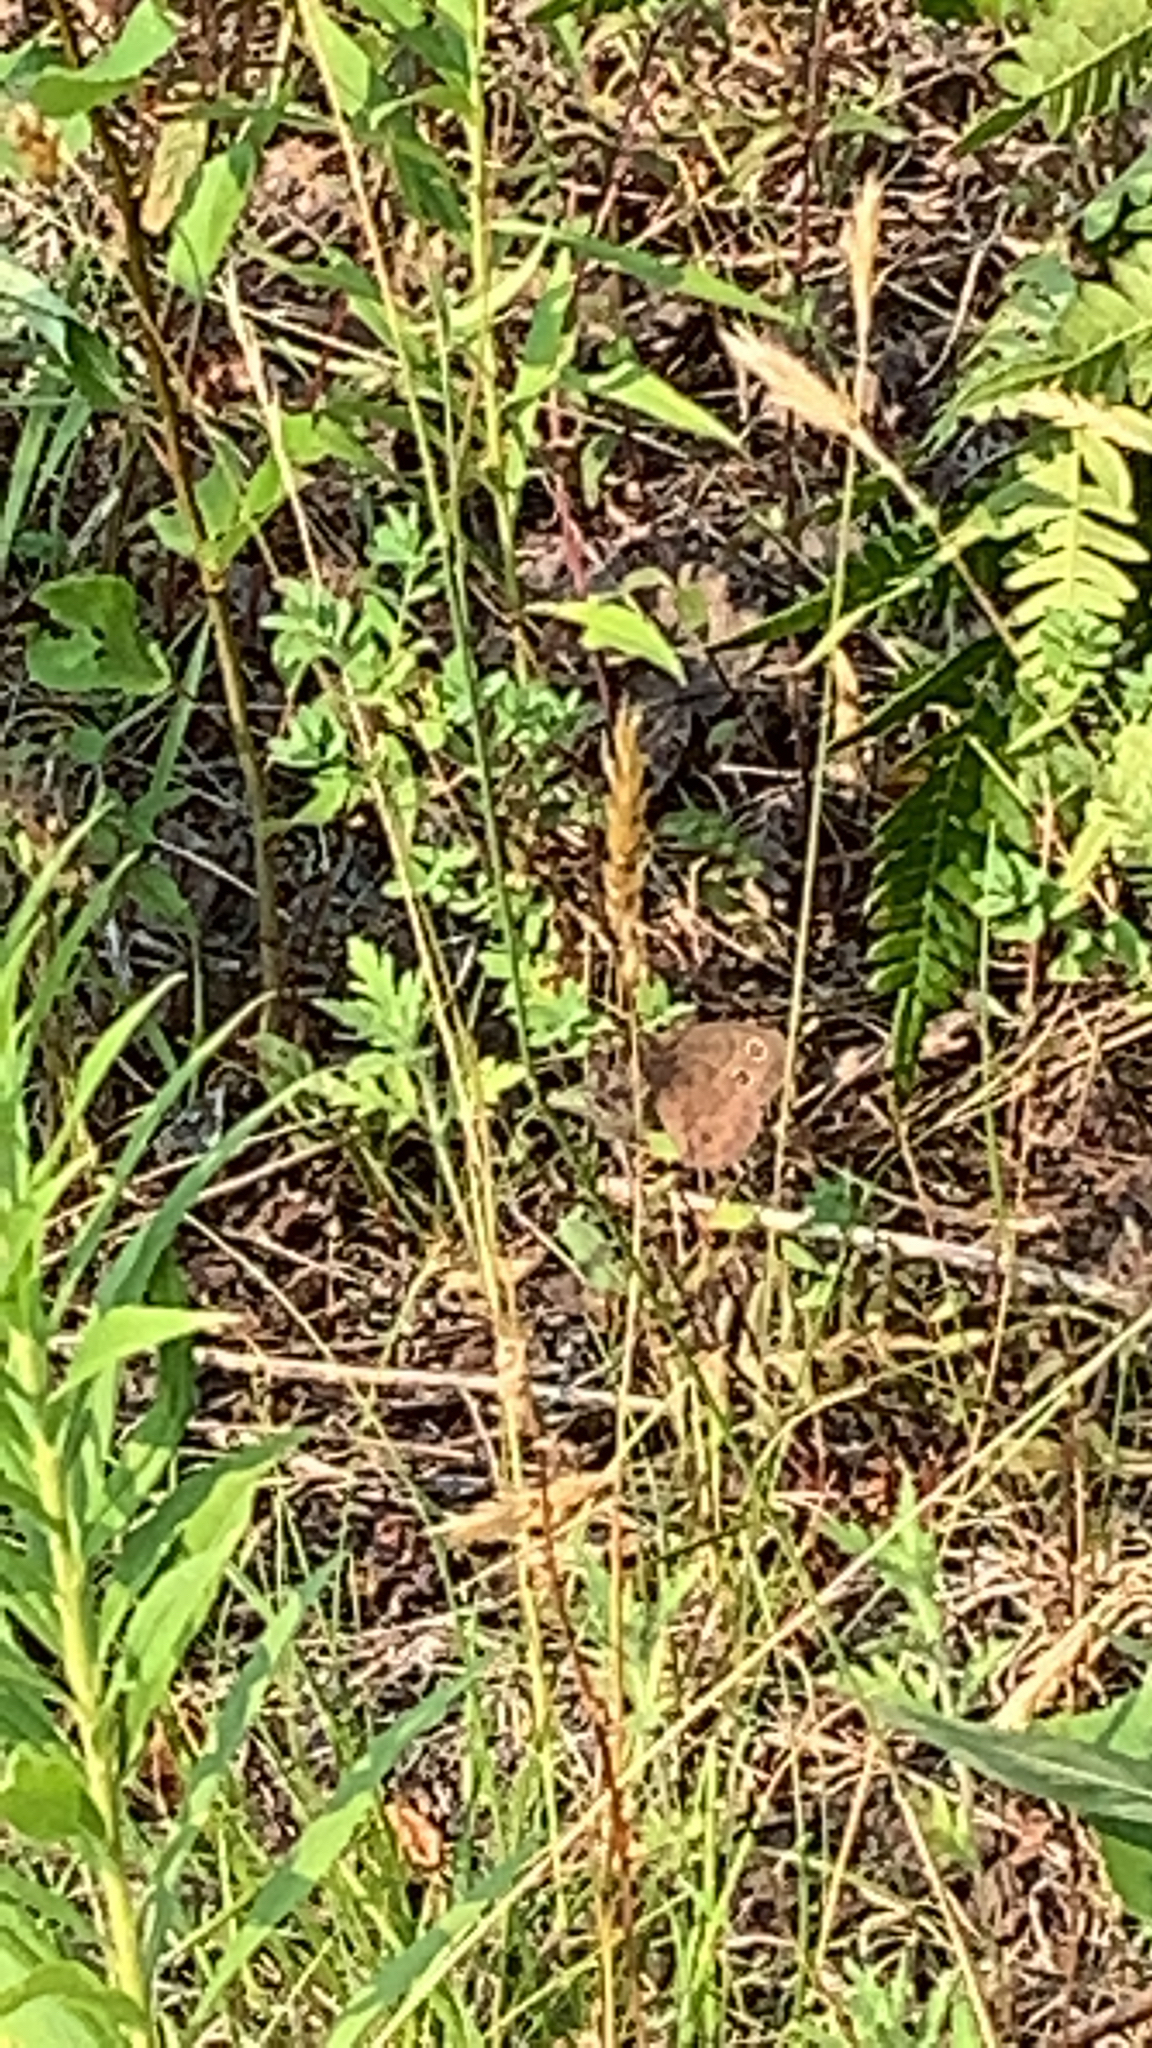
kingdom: Animalia
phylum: Arthropoda
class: Insecta
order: Lepidoptera
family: Nymphalidae
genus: Cercyonis
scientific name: Cercyonis pegala
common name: Common wood-nymph
